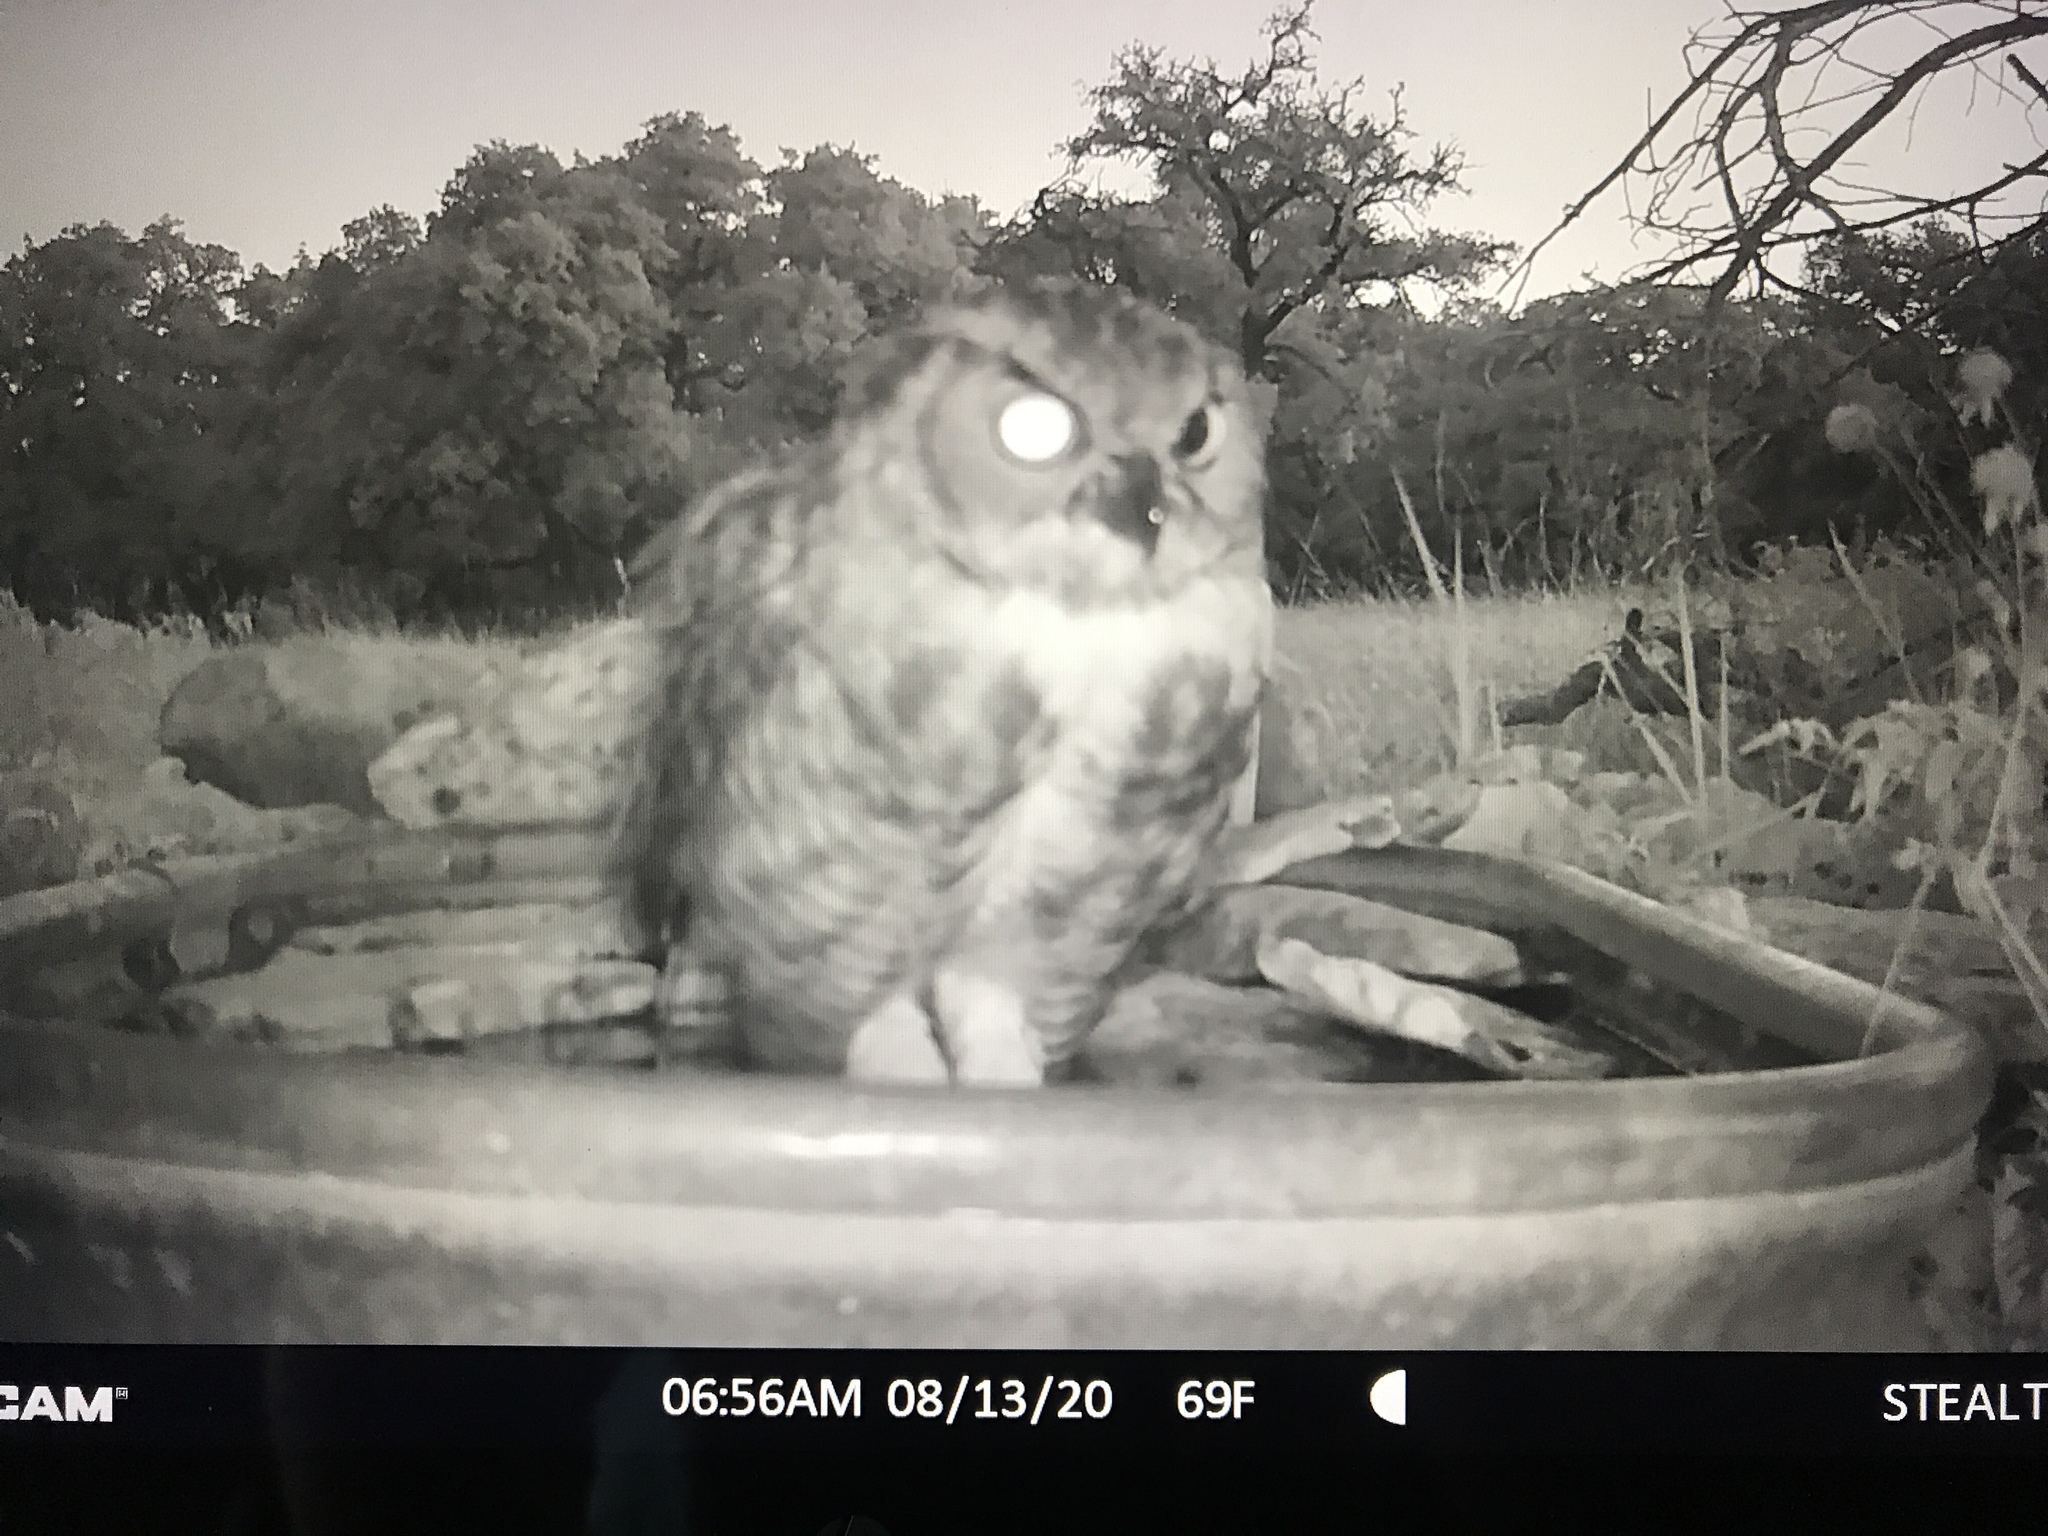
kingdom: Animalia
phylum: Chordata
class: Aves
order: Strigiformes
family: Strigidae
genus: Bubo
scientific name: Bubo virginianus
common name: Great horned owl
